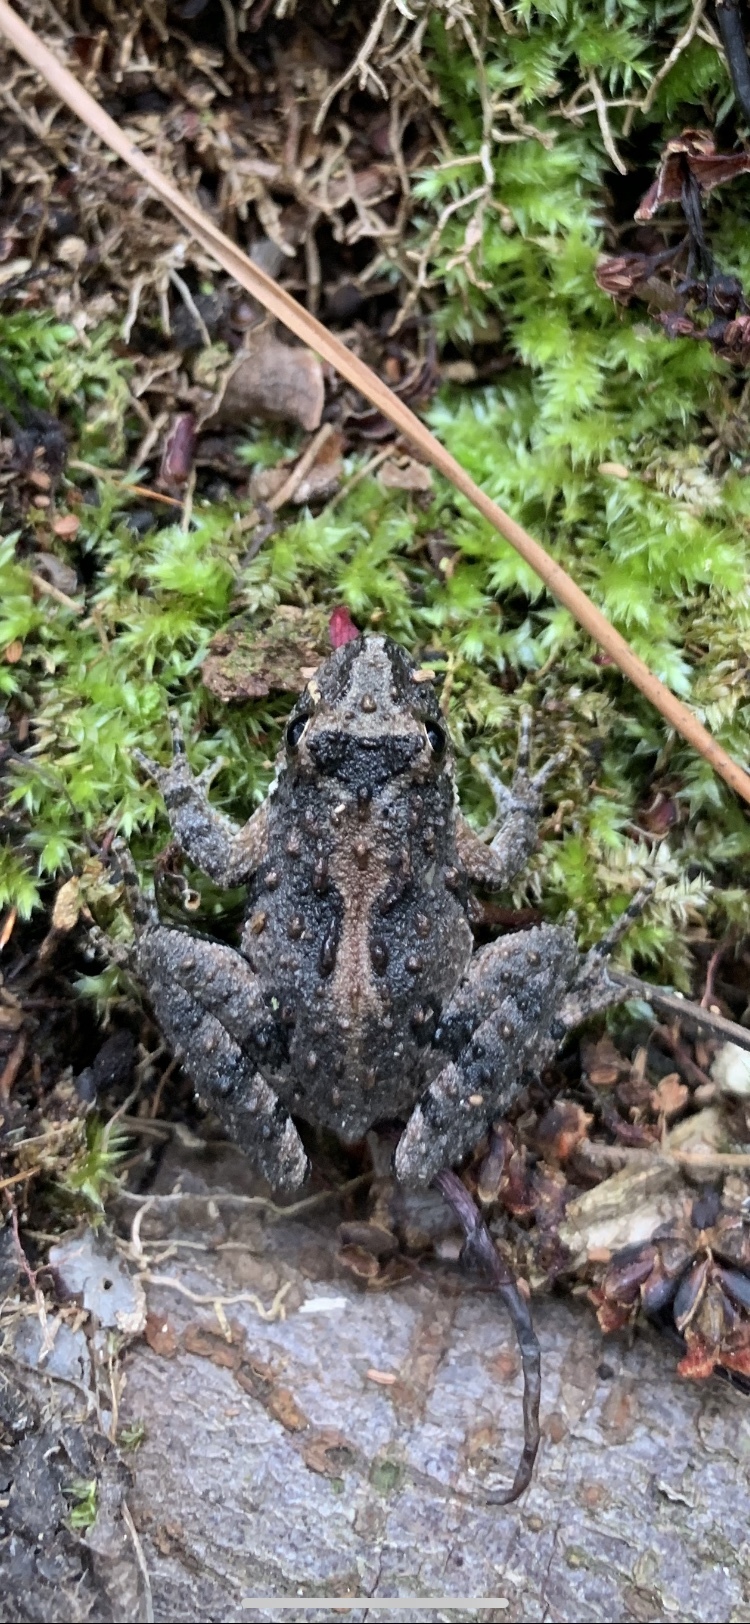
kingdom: Animalia
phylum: Chordata
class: Amphibia
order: Anura
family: Hylidae
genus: Acris
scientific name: Acris crepitans
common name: Northern cricket frog
